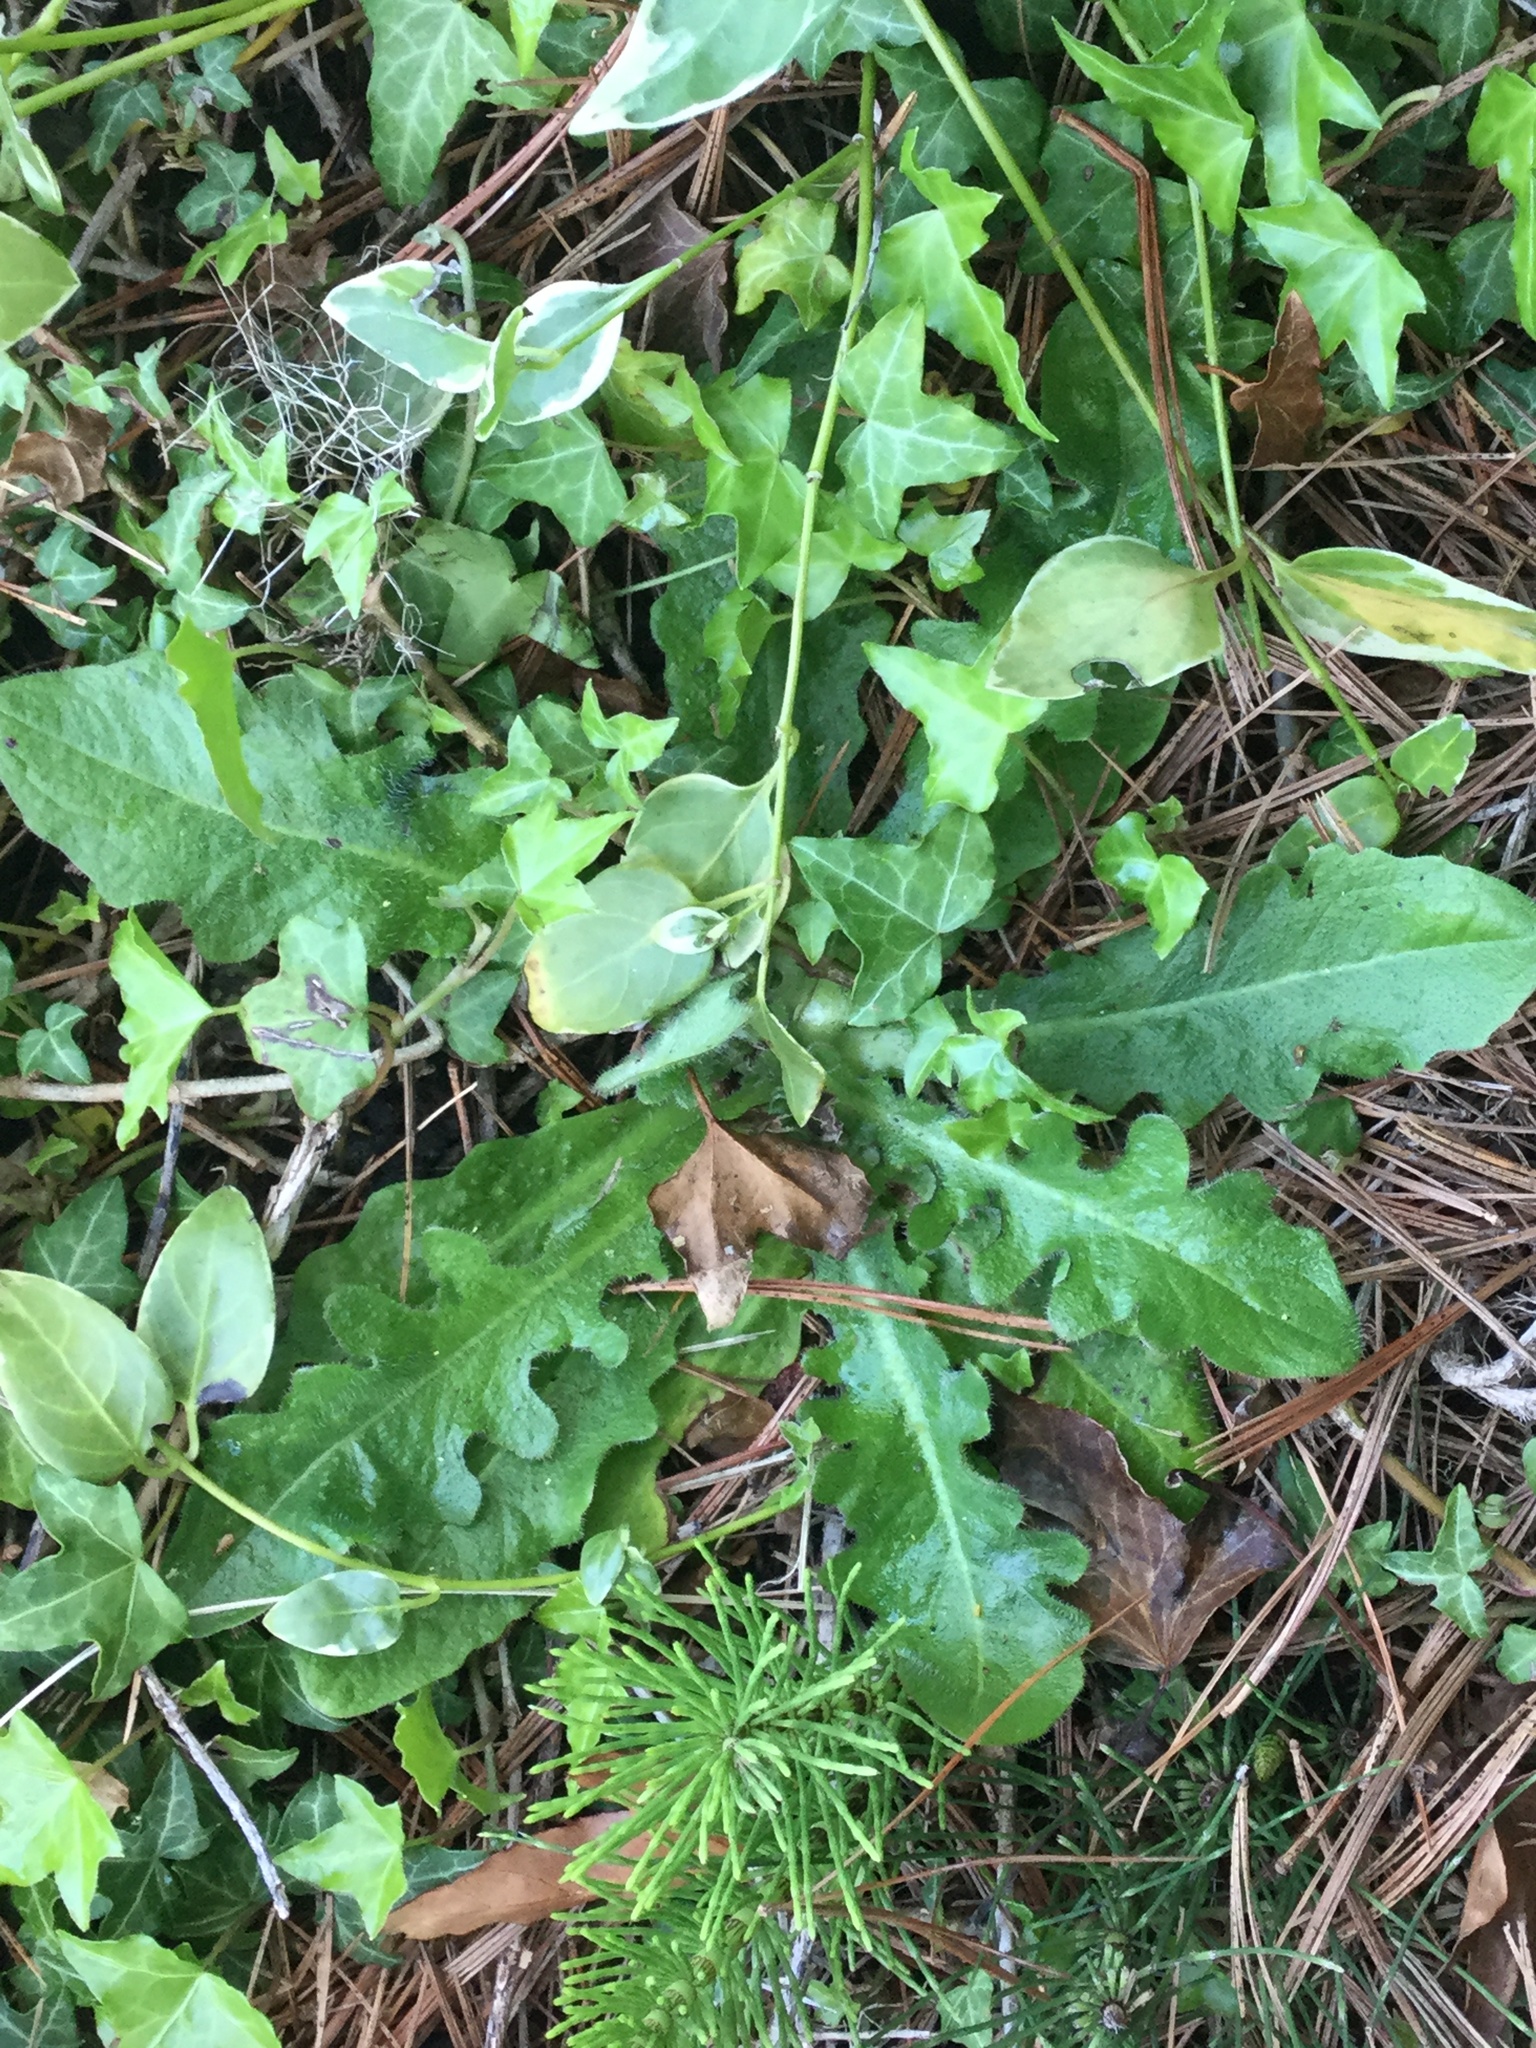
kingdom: Plantae
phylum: Tracheophyta
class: Magnoliopsida
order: Asterales
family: Asteraceae
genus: Taraxacum
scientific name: Taraxacum officinale
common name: Common dandelion
